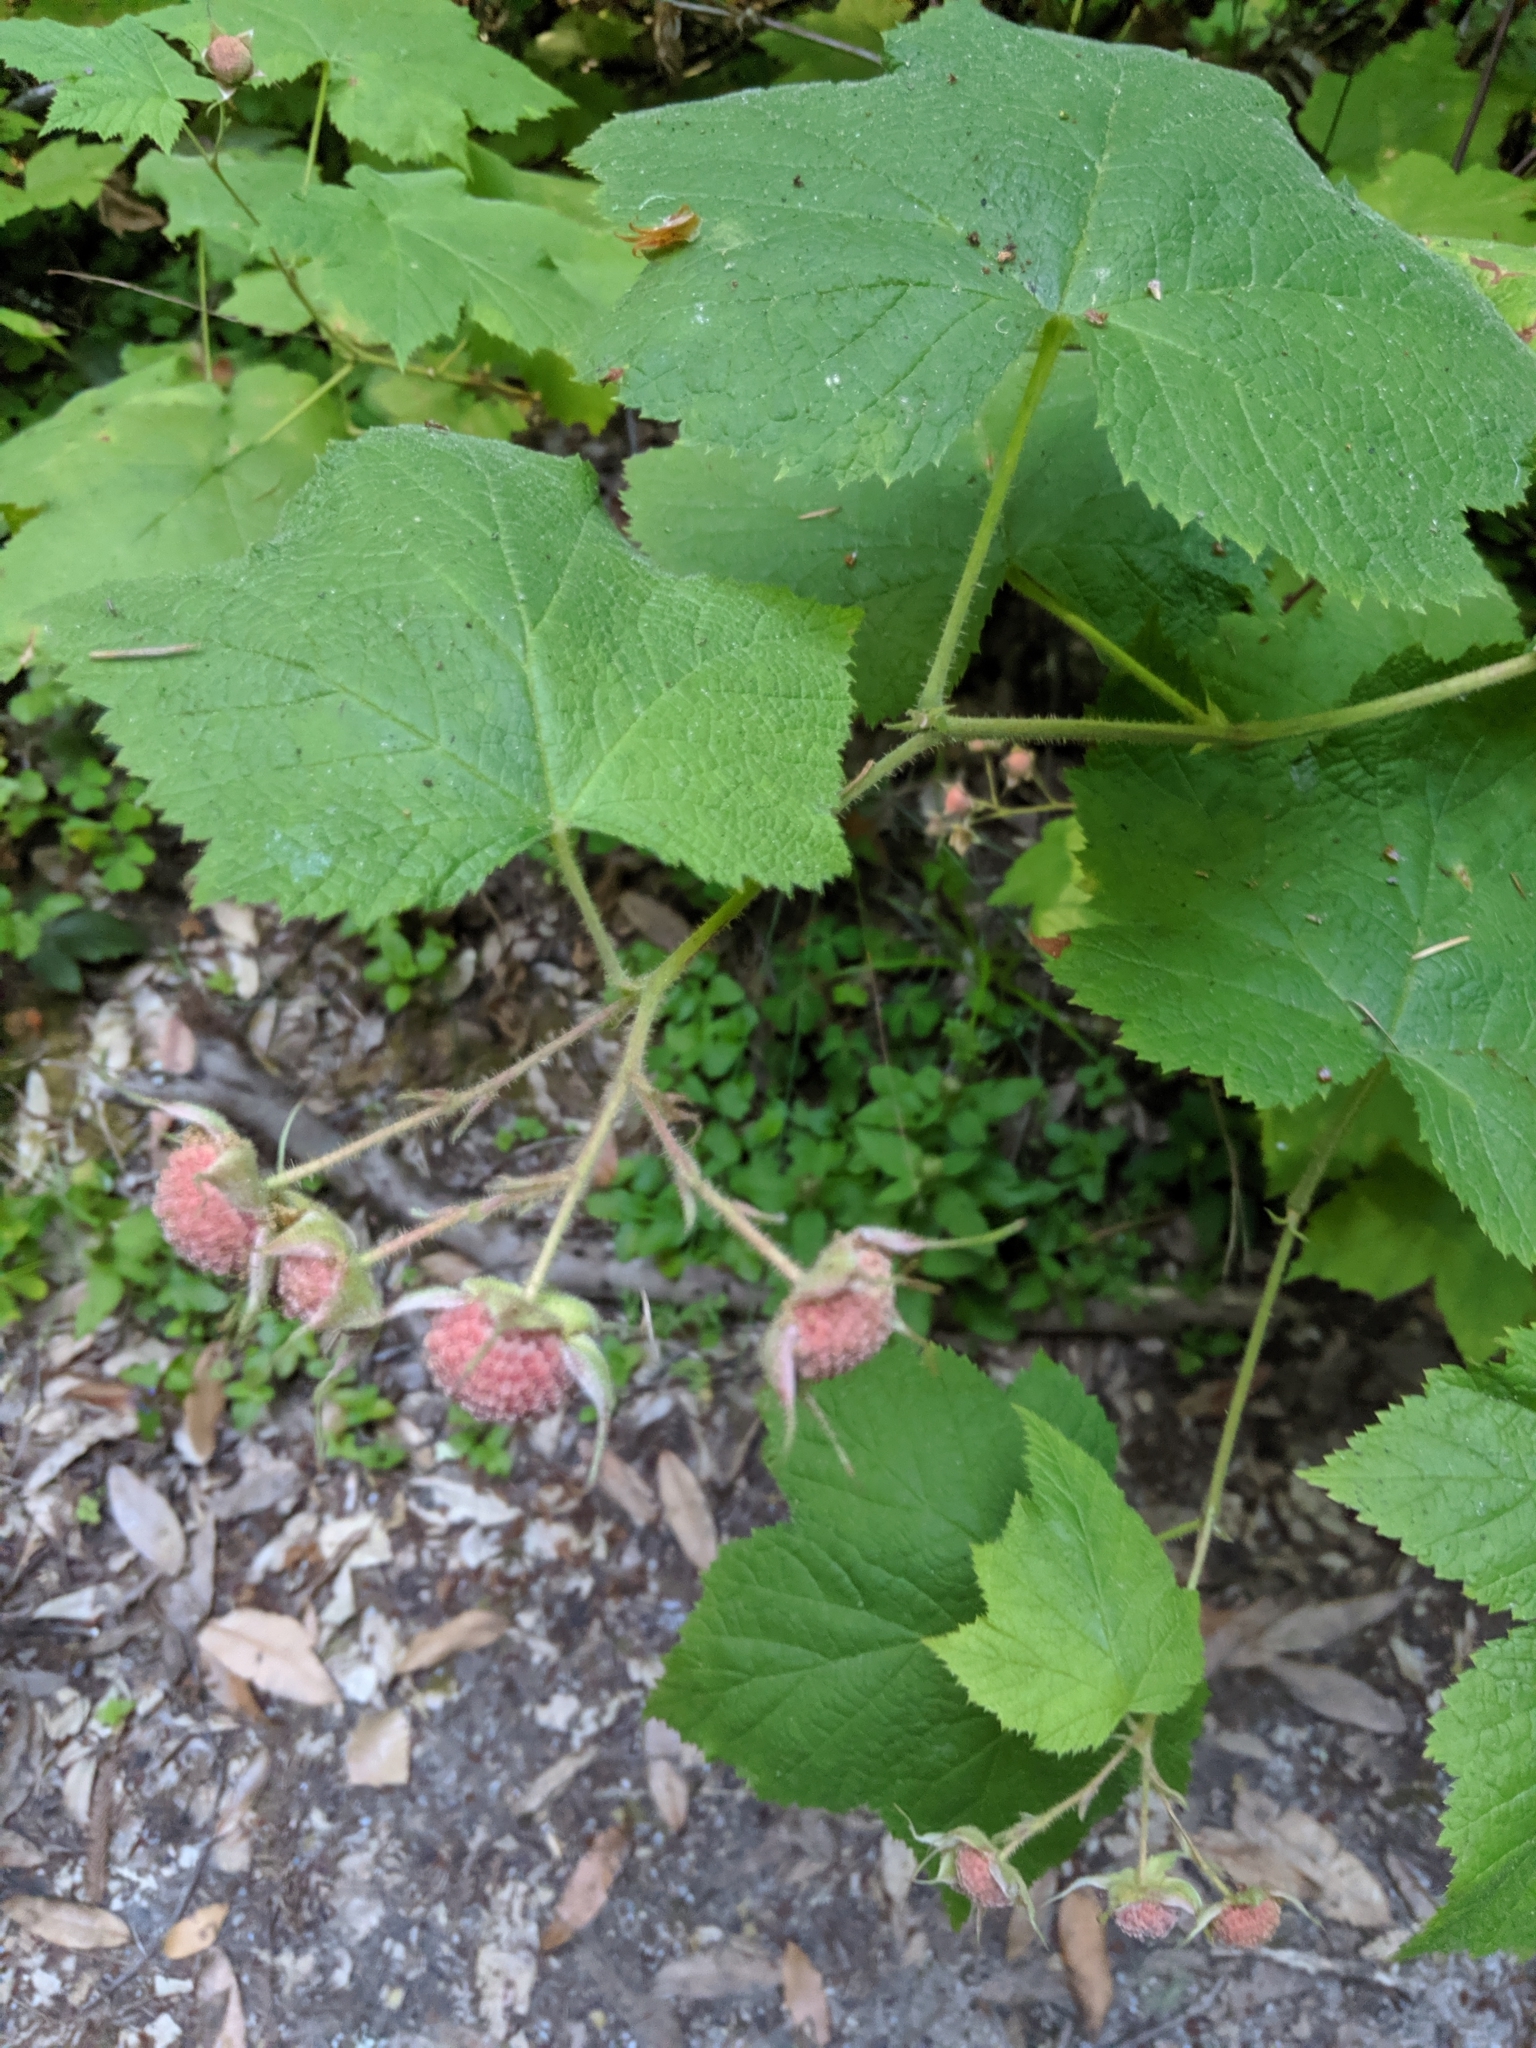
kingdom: Plantae
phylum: Tracheophyta
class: Magnoliopsida
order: Rosales
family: Rosaceae
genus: Rubus
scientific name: Rubus parviflorus
